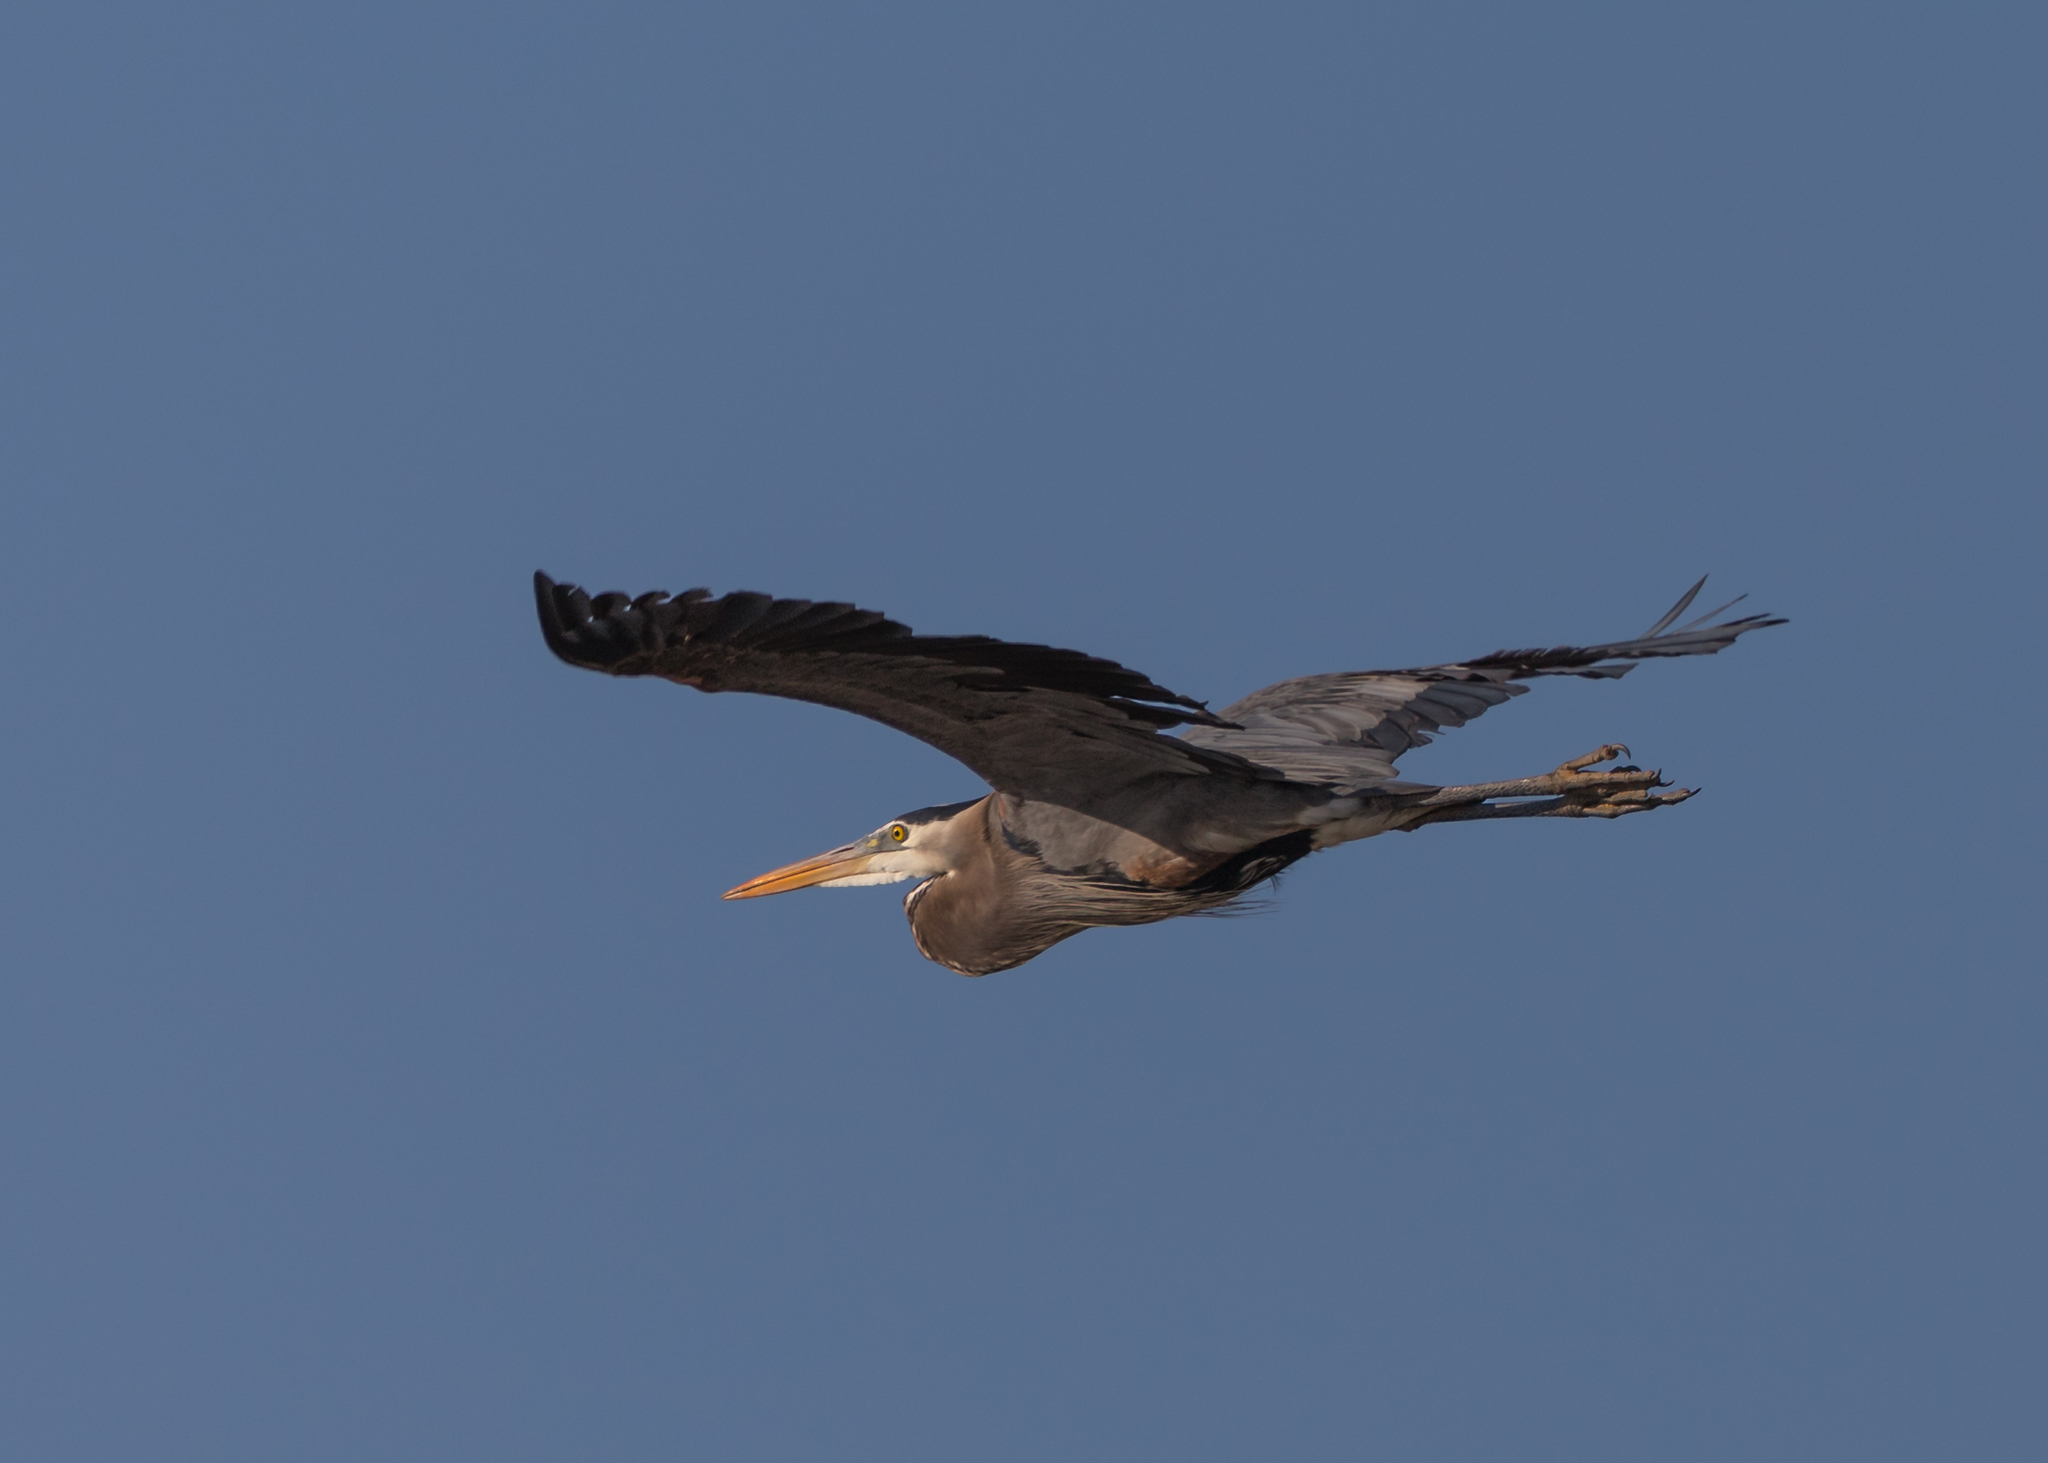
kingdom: Animalia
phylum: Chordata
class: Aves
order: Pelecaniformes
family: Ardeidae
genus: Ardea
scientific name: Ardea herodias
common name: Great blue heron
